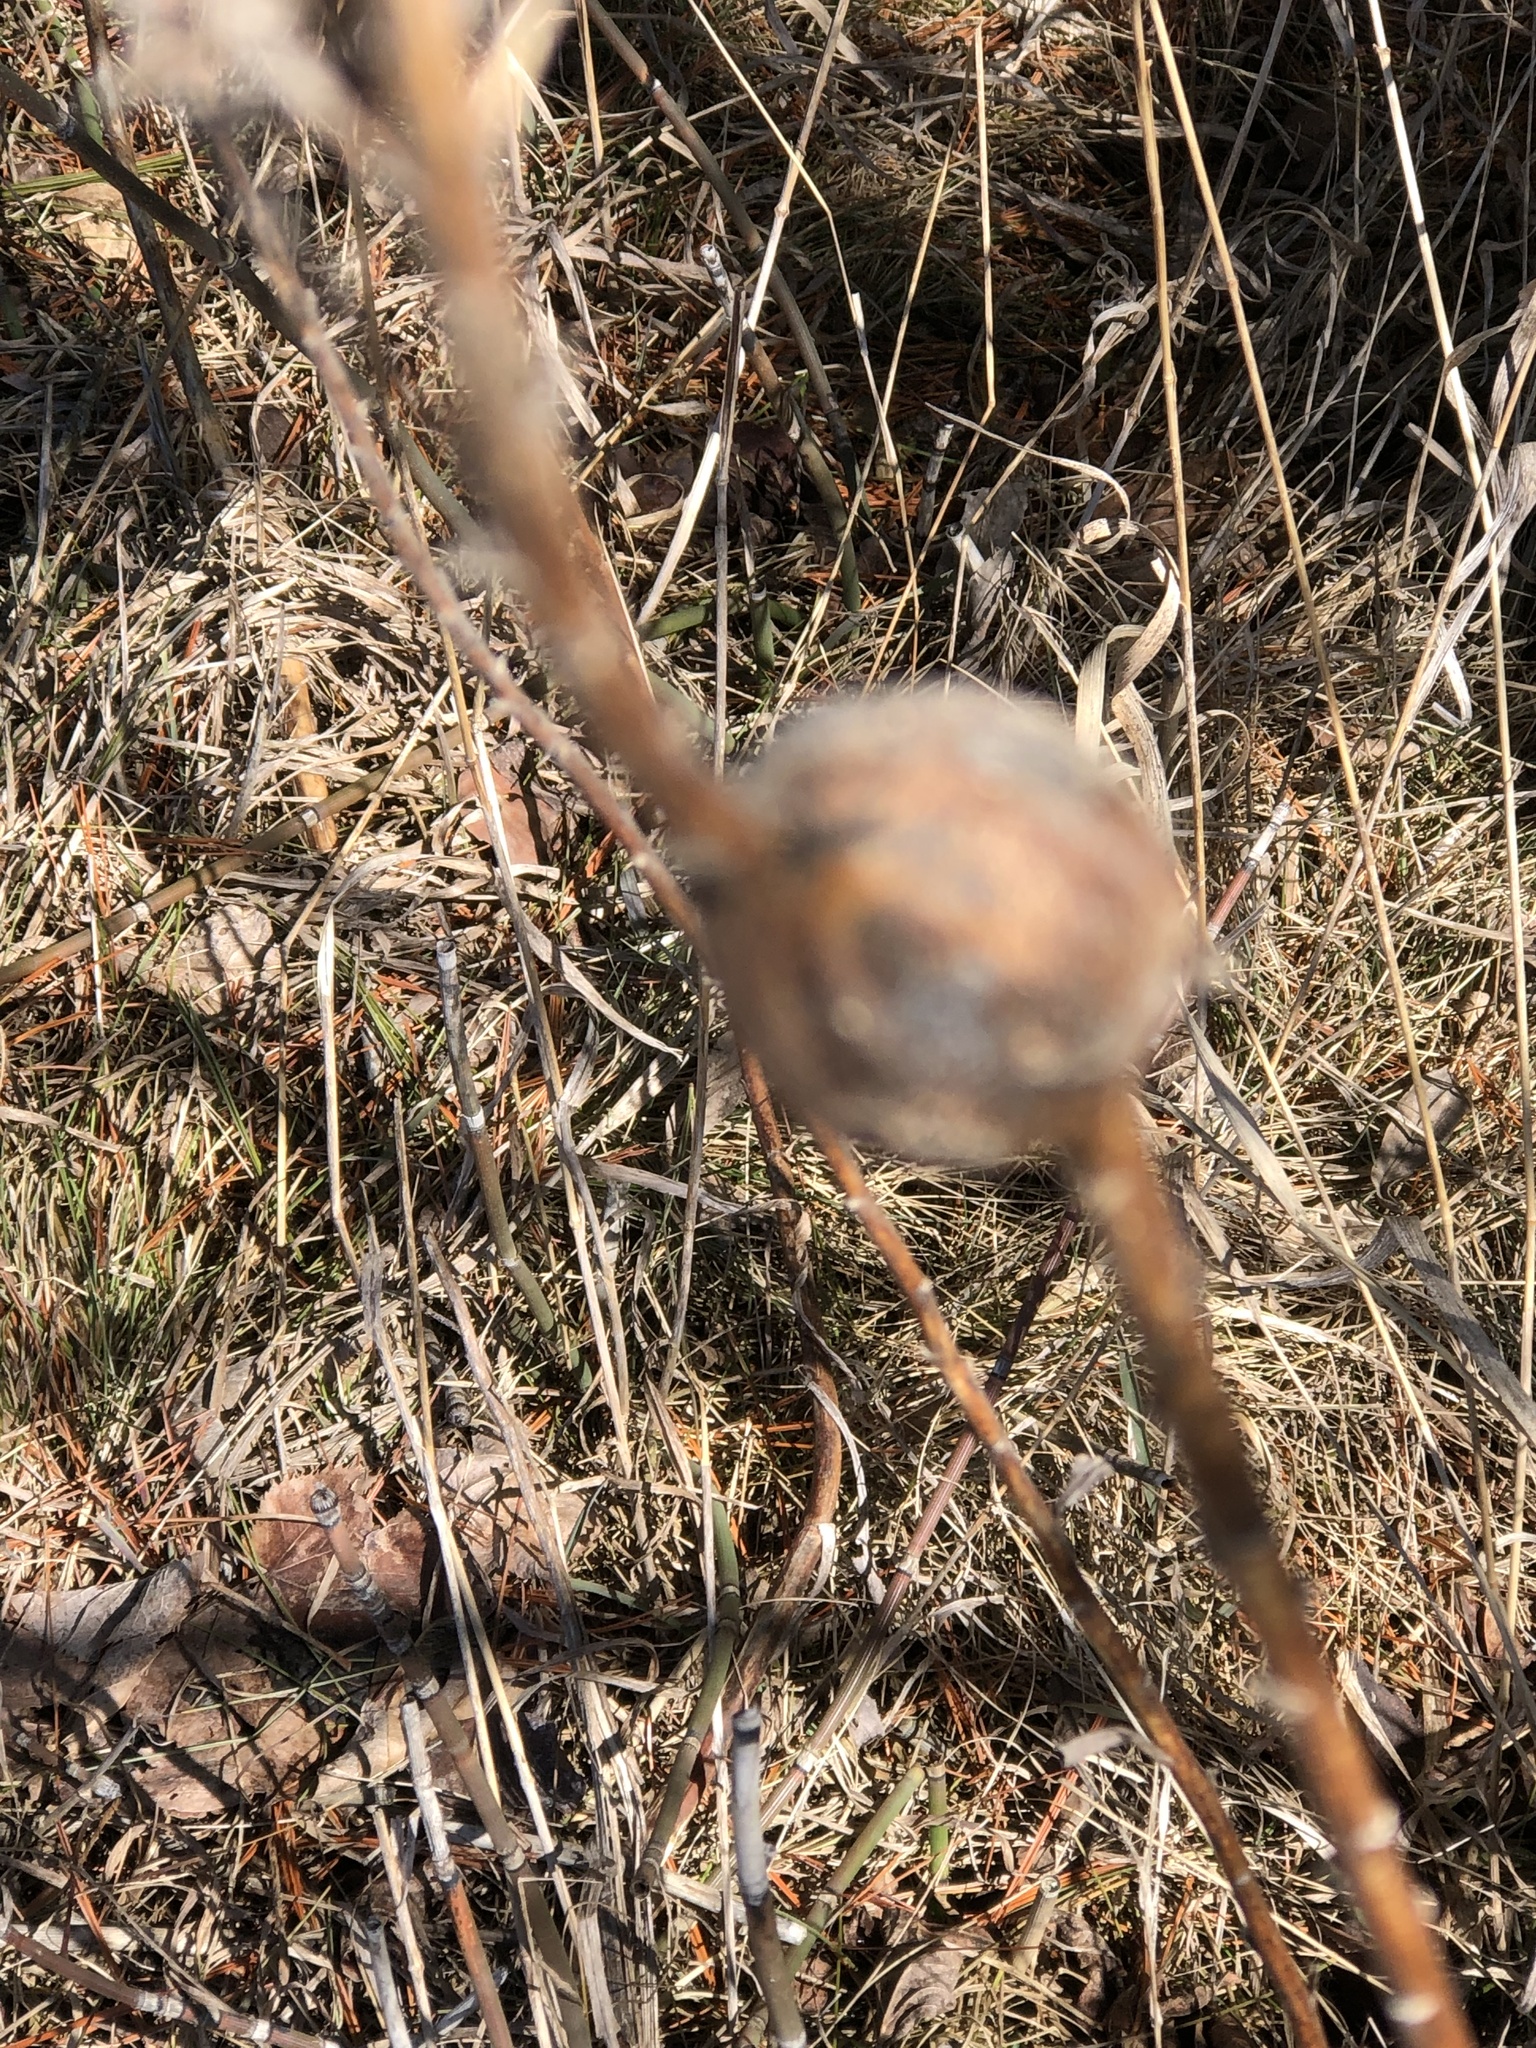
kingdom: Animalia
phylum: Arthropoda
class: Insecta
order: Diptera
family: Tephritidae
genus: Eurosta
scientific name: Eurosta solidaginis
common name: Goldenrod gall fly
